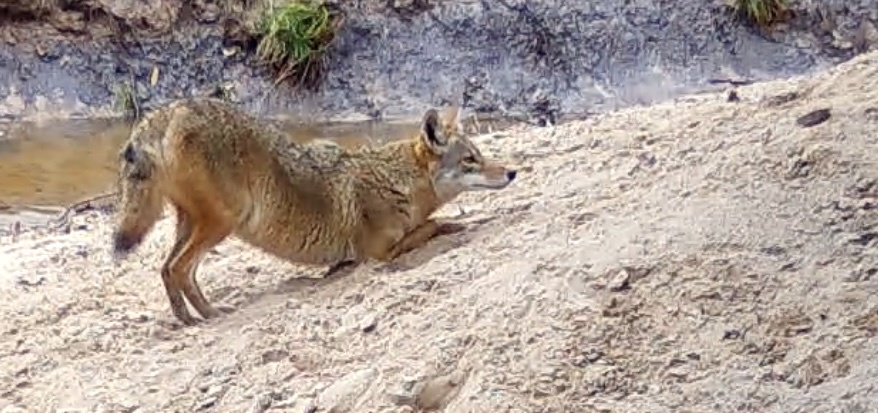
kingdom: Animalia
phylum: Chordata
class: Mammalia
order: Carnivora
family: Canidae
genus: Canis
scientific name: Canis latrans
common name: Coyote
